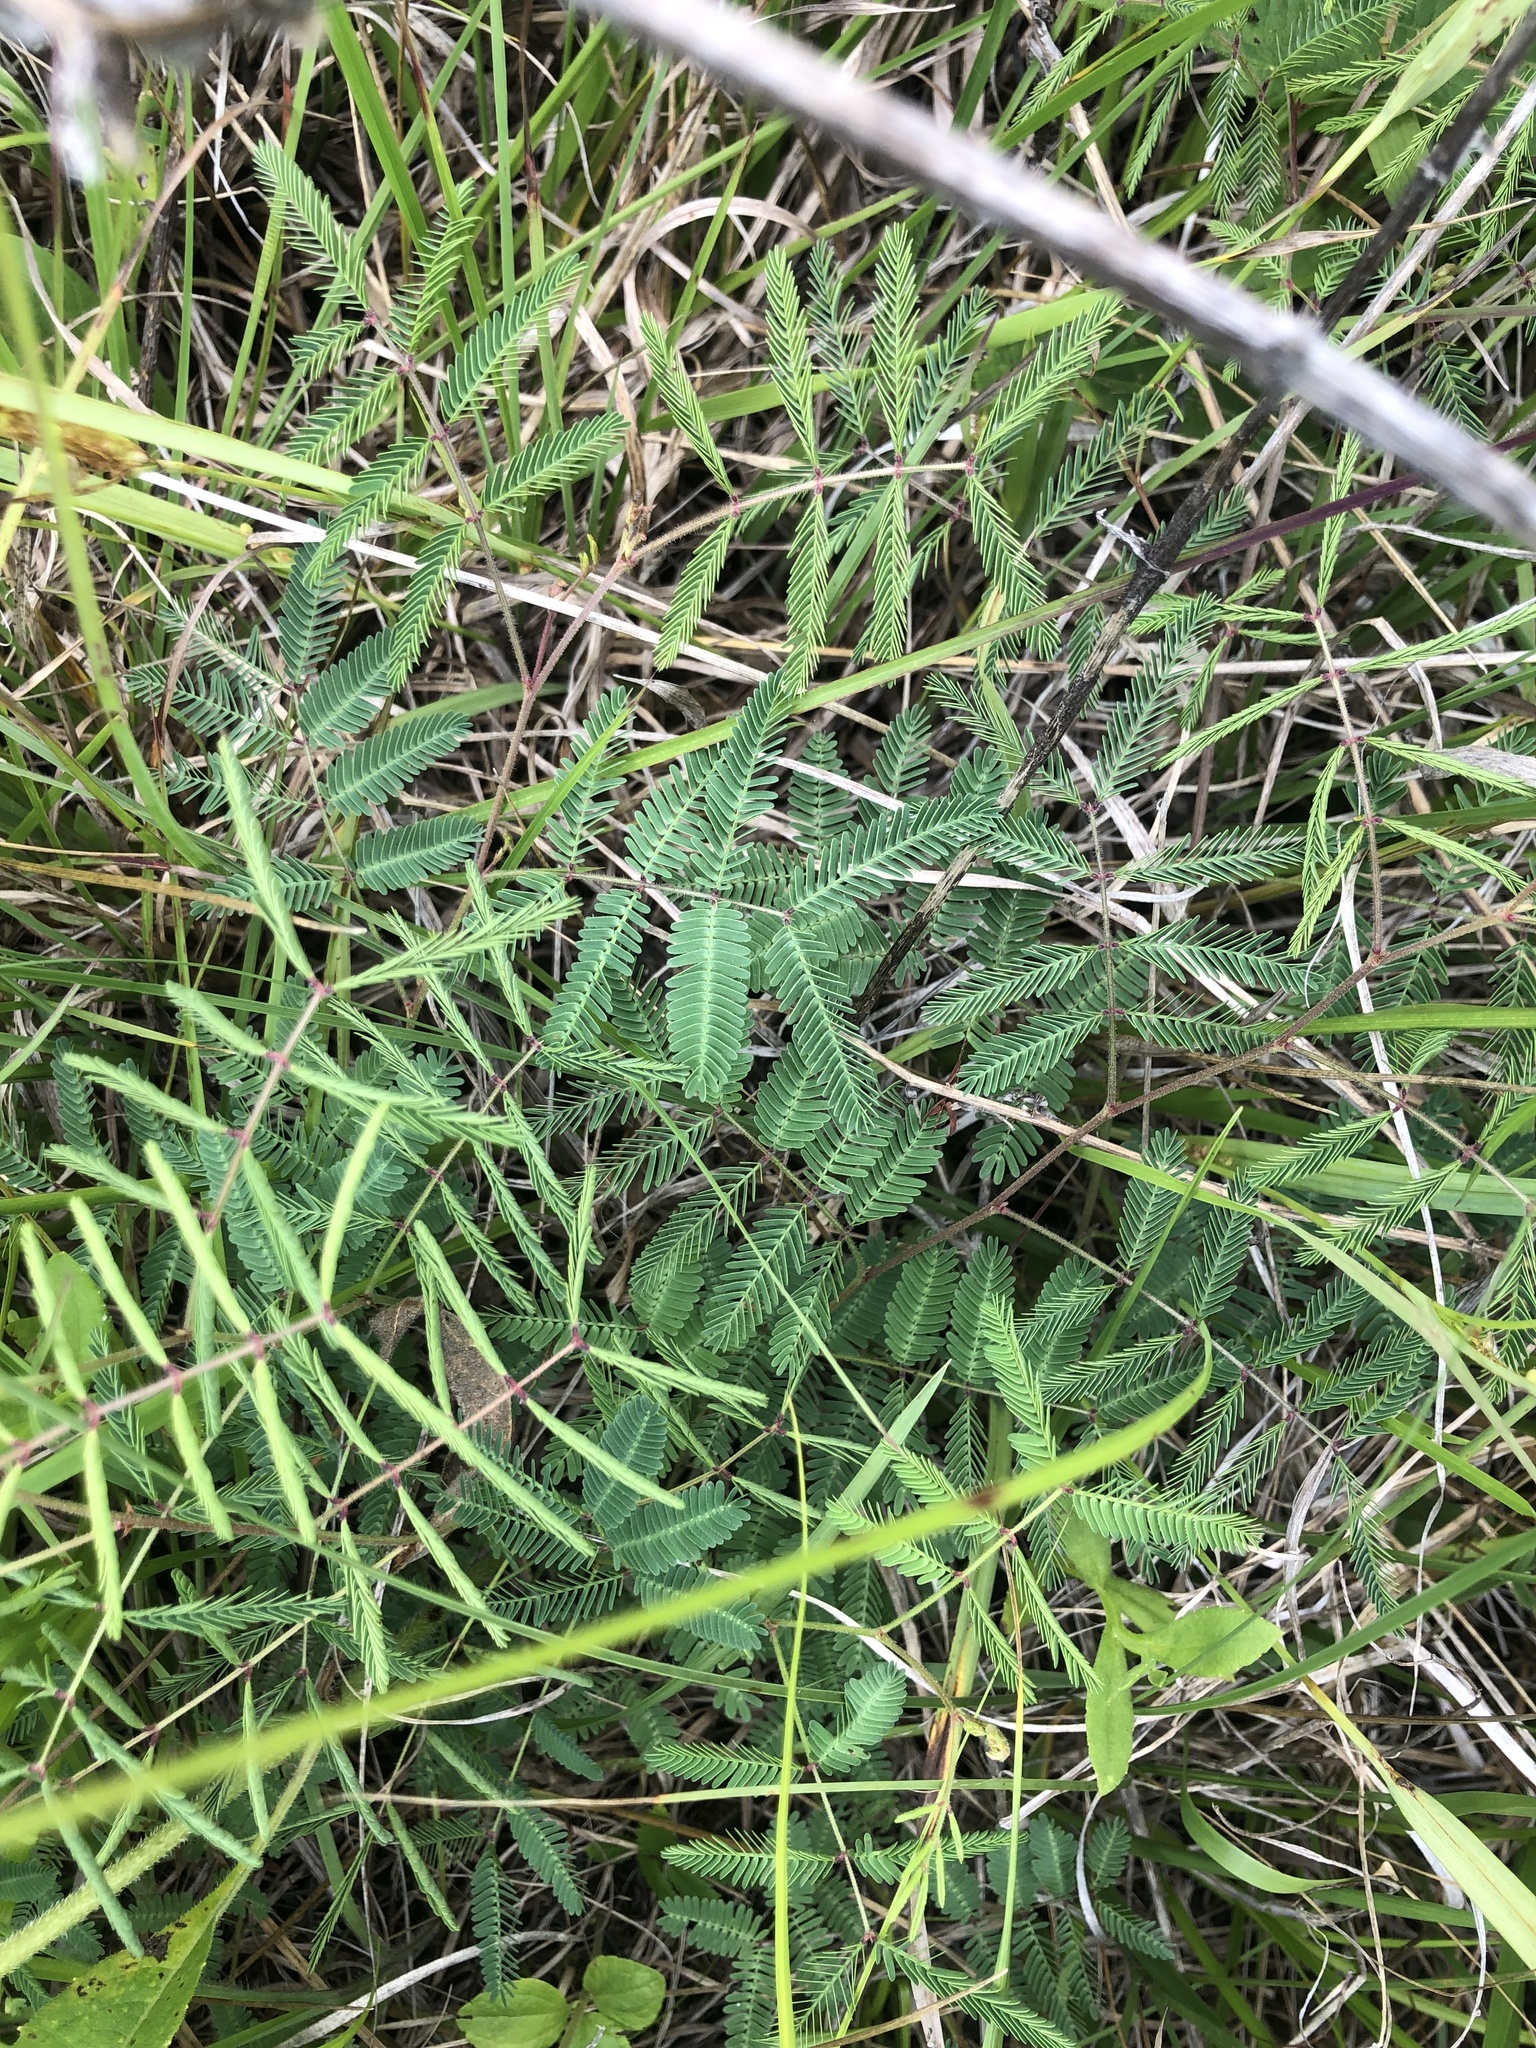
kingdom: Plantae
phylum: Tracheophyta
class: Magnoliopsida
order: Fabales
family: Fabaceae
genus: Neptunia
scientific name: Neptunia lutea
